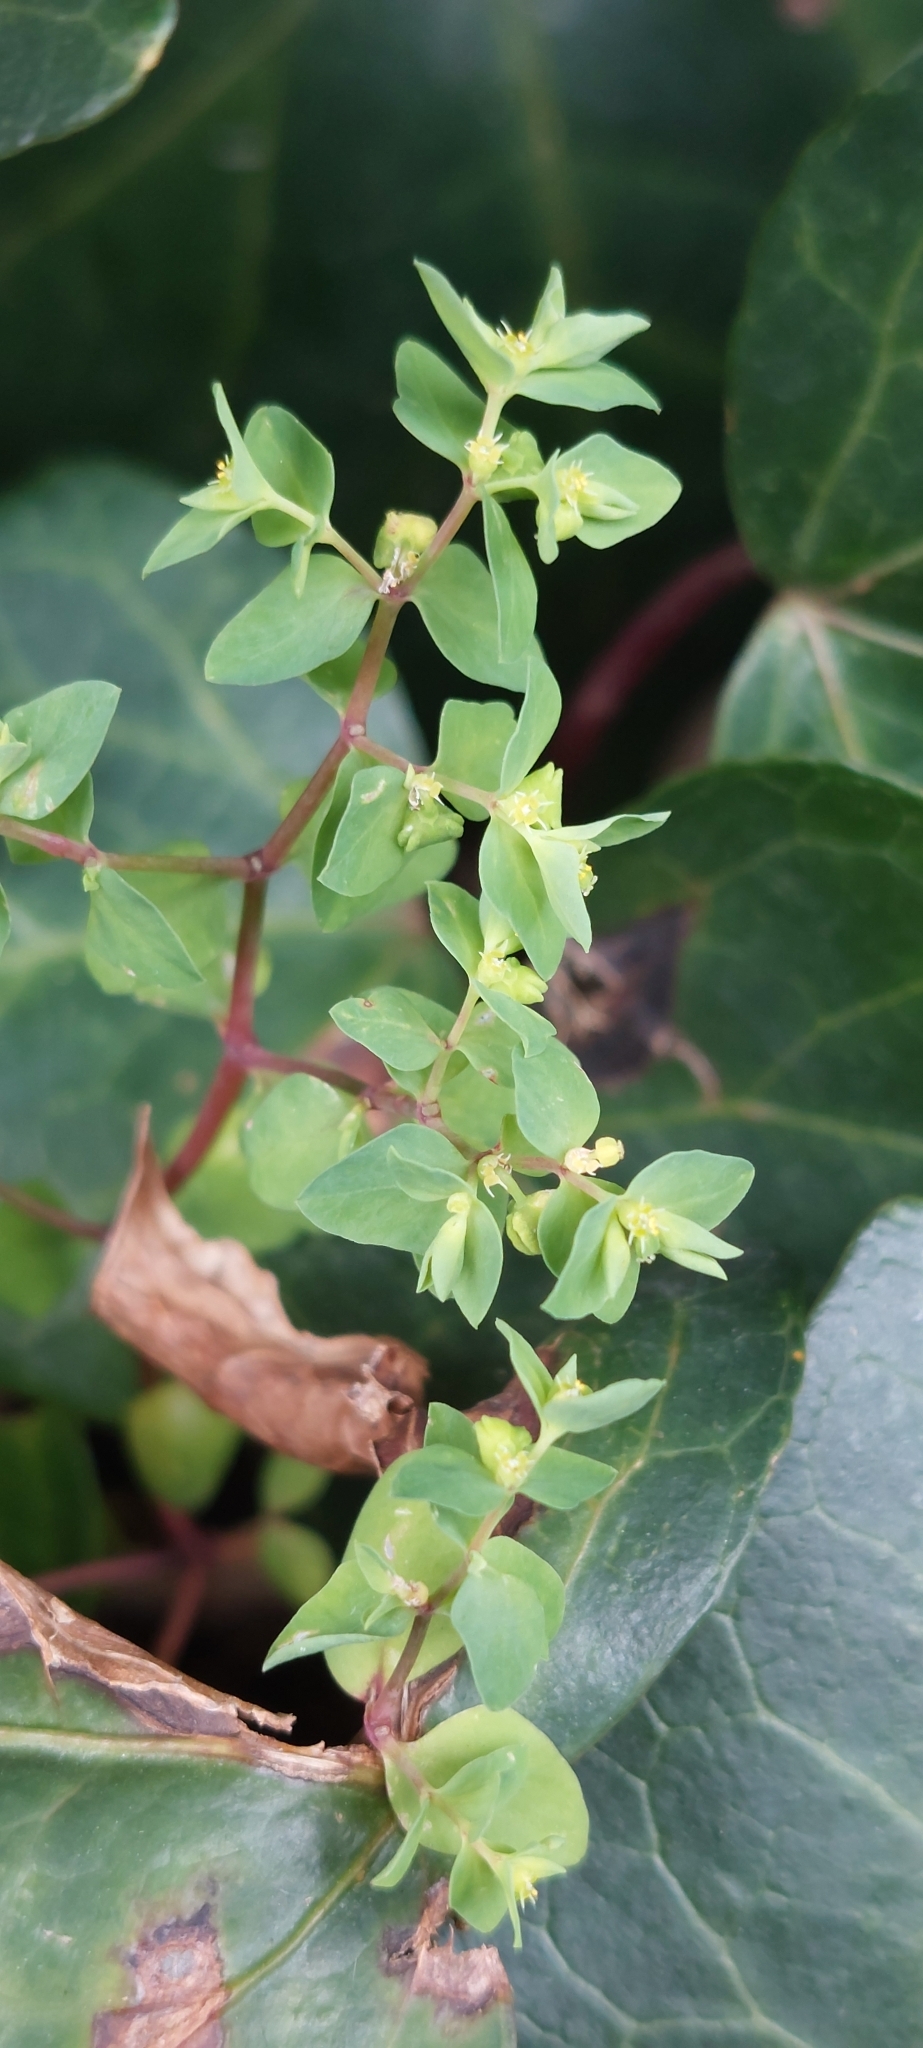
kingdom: Plantae
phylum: Tracheophyta
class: Magnoliopsida
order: Malpighiales
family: Euphorbiaceae
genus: Euphorbia
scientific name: Euphorbia peplus
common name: Petty spurge
